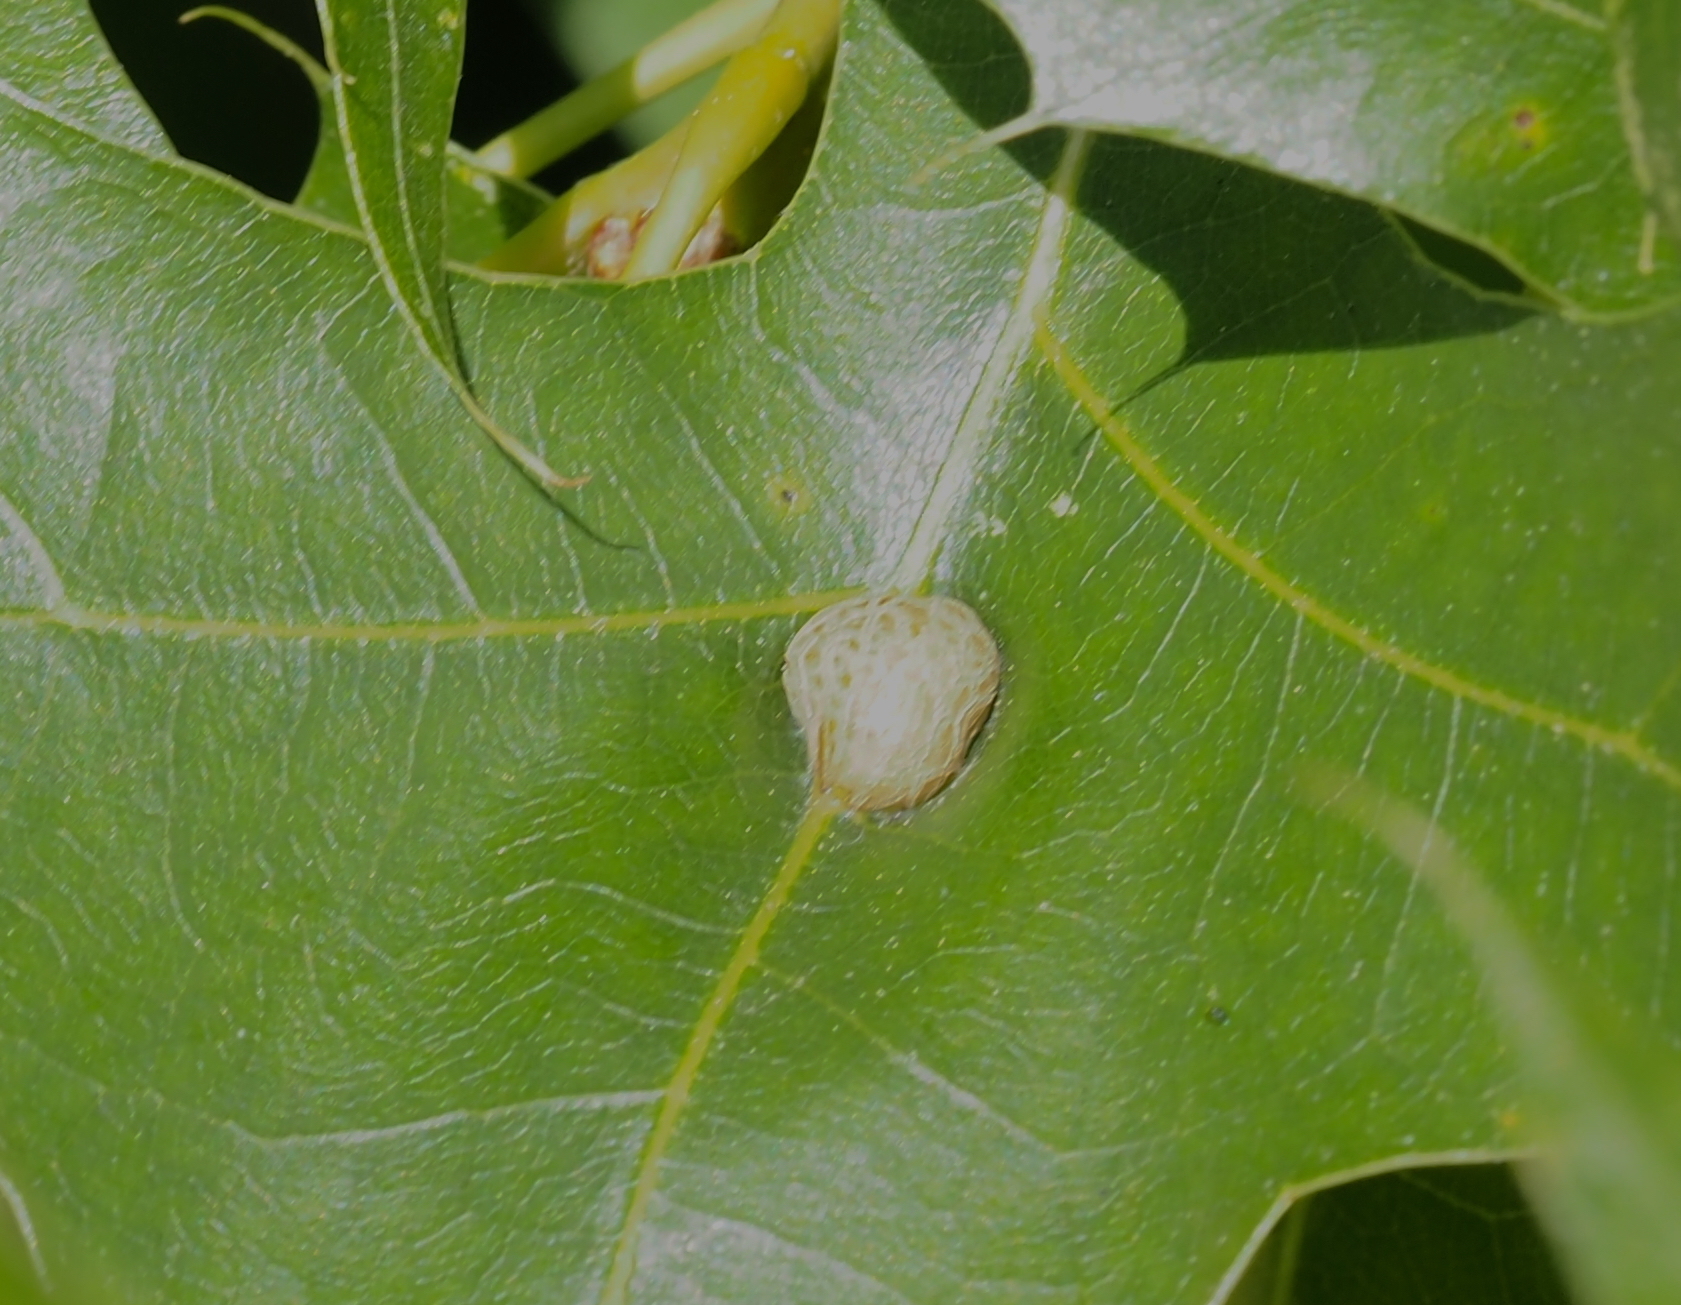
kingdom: Animalia
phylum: Arthropoda
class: Insecta
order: Diptera
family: Cecidomyiidae
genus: Polystepha
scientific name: Polystepha pilulae
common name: Oak leaf gall midge
